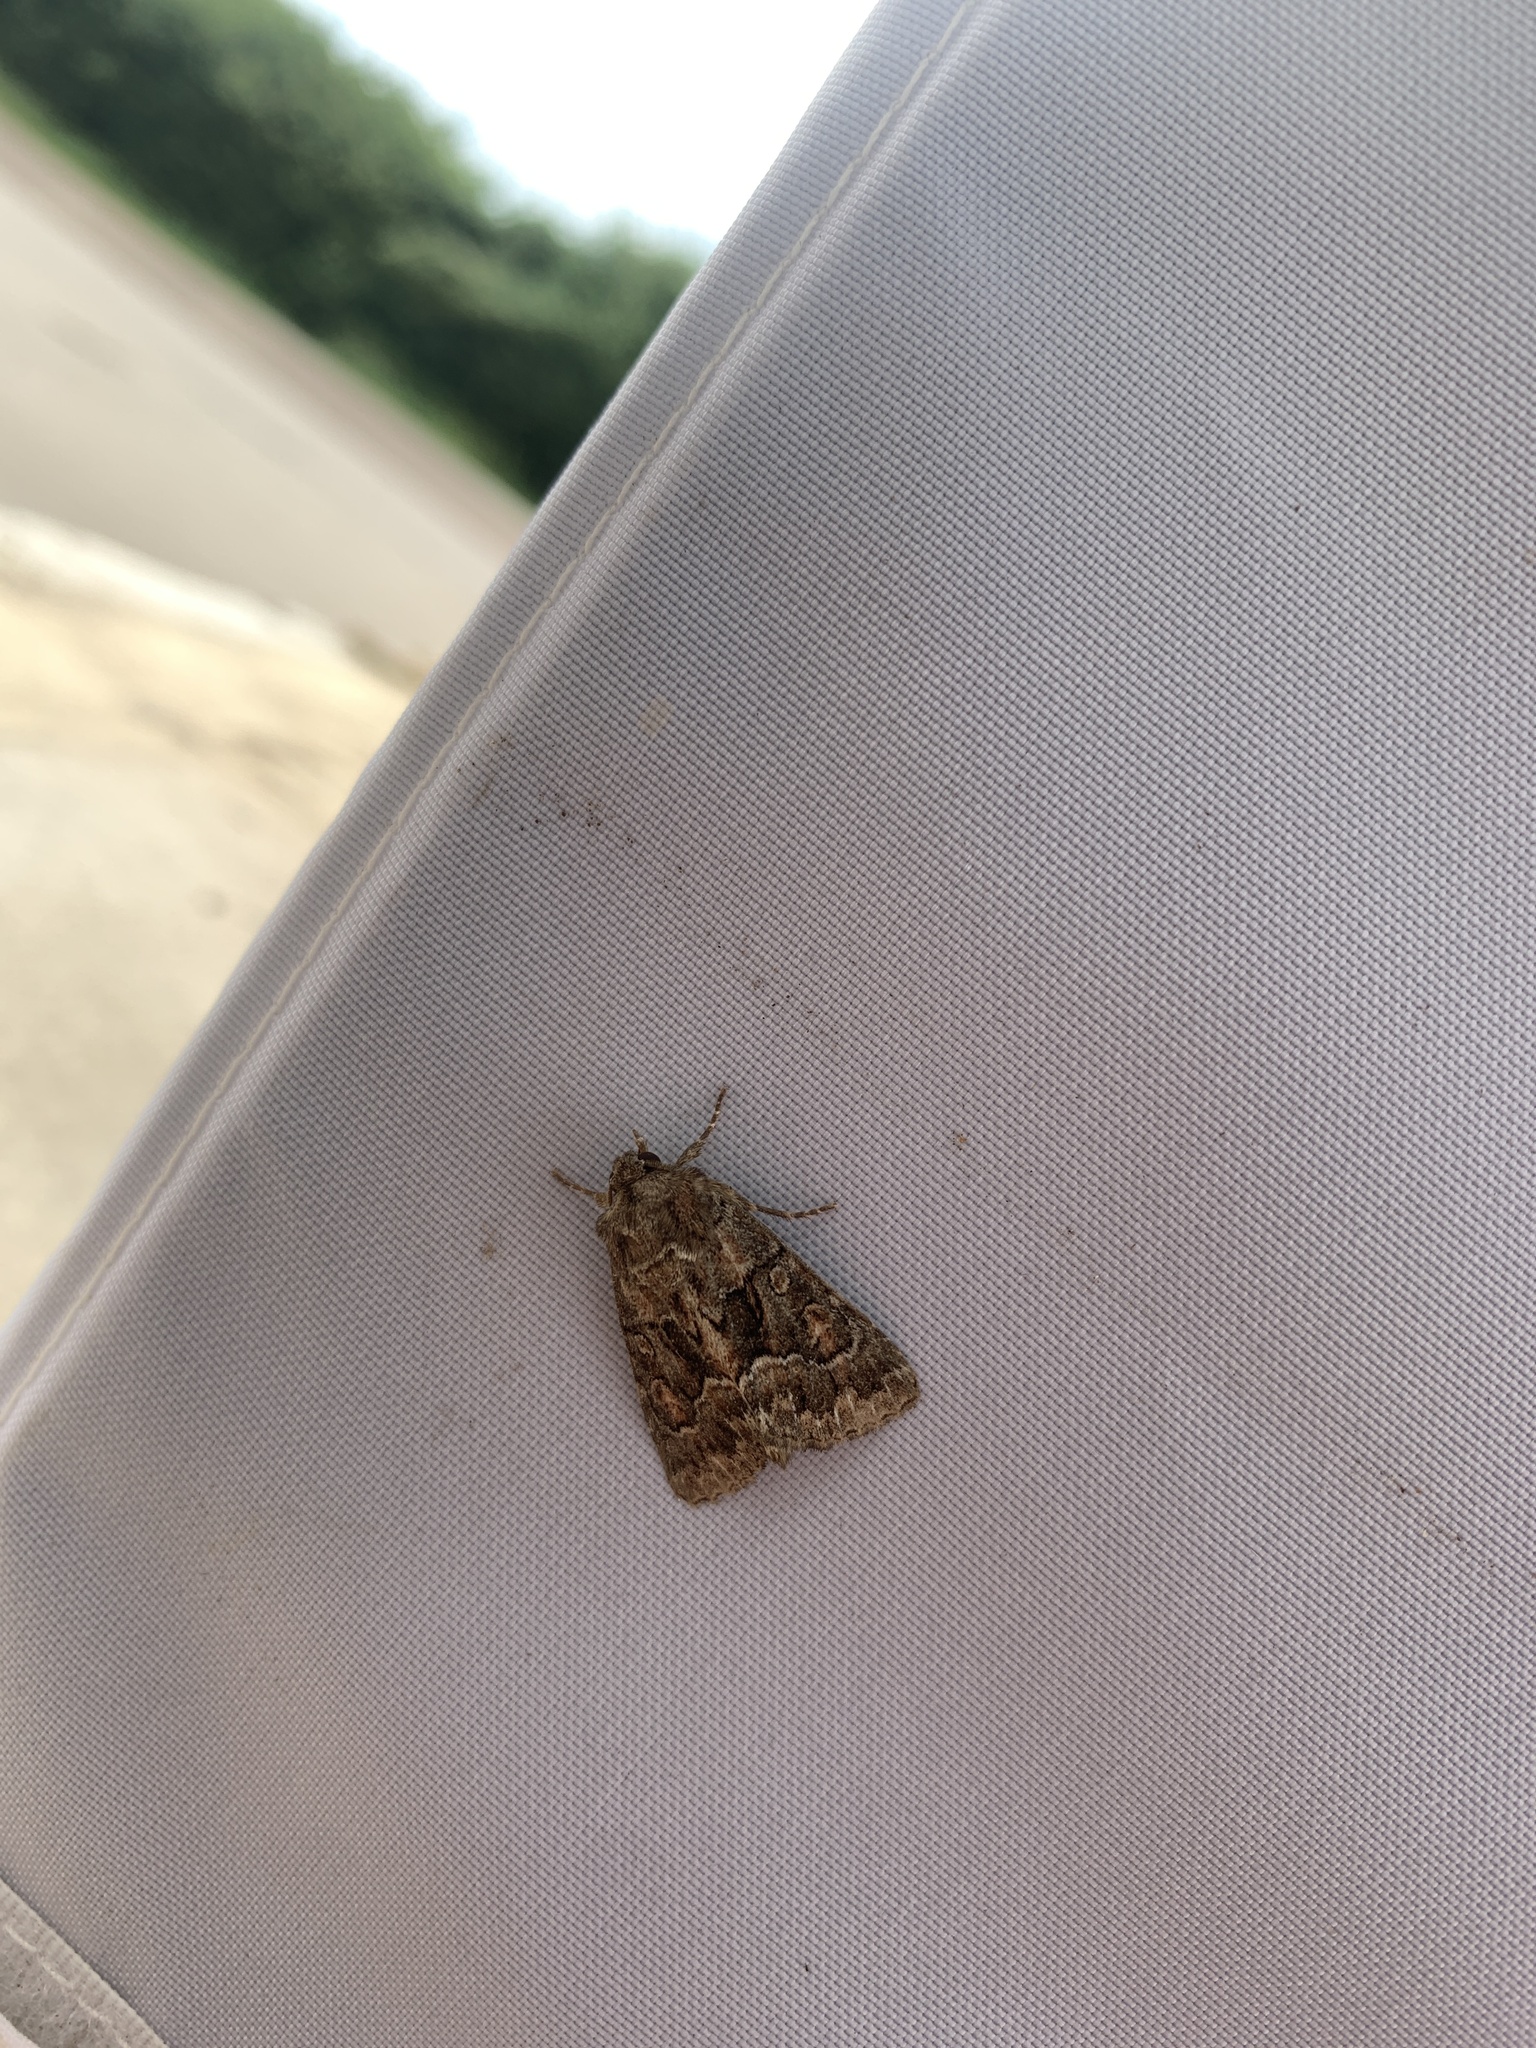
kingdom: Animalia
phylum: Arthropoda
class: Insecta
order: Lepidoptera
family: Noctuidae
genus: Thalpophila
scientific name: Thalpophila matura
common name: Straw underwing
